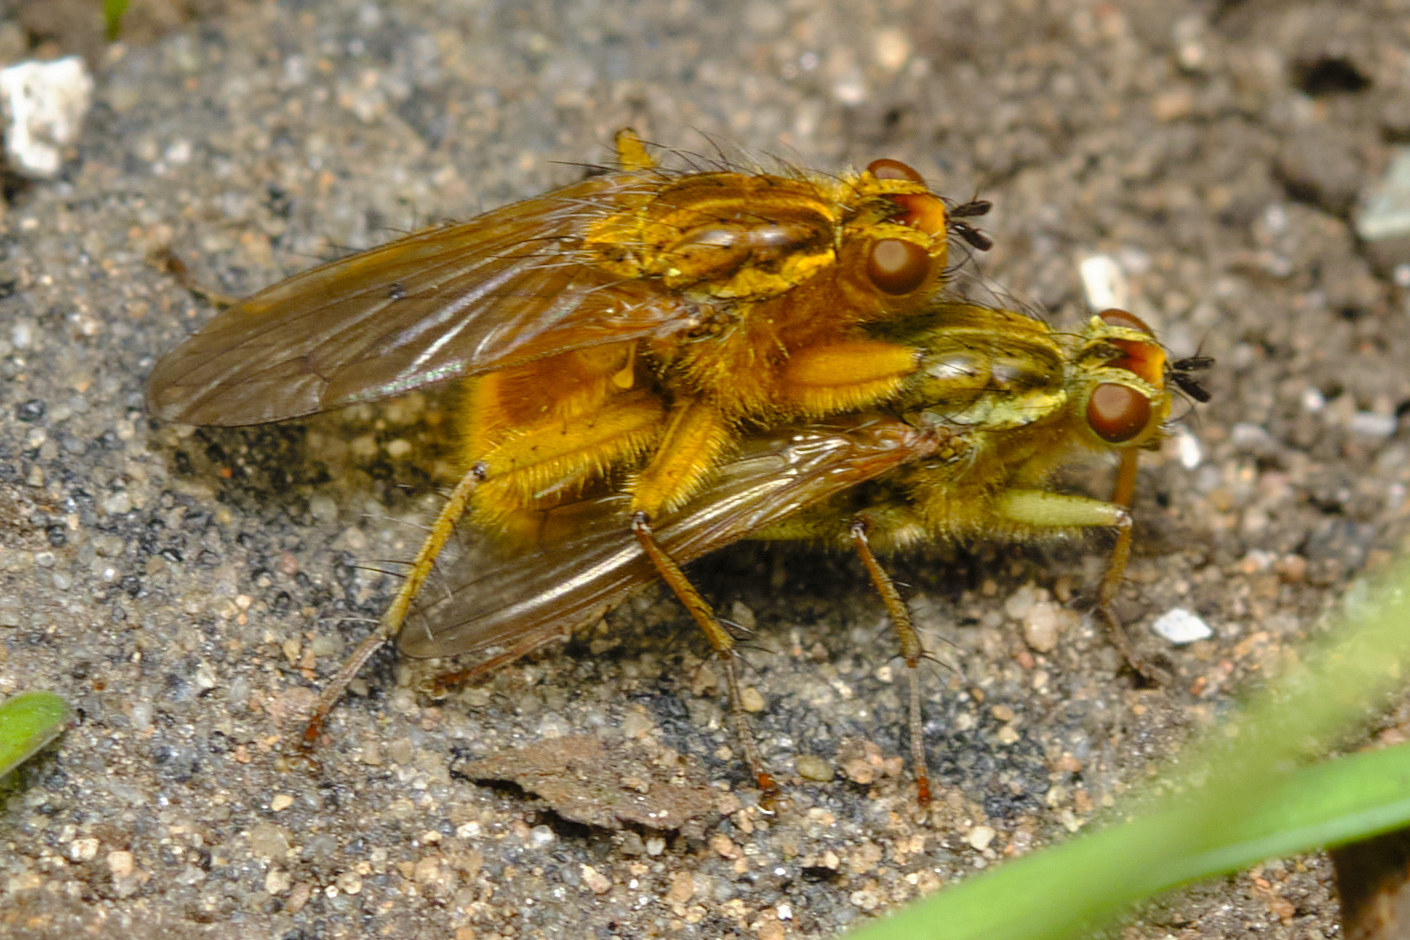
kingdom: Animalia
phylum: Arthropoda
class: Insecta
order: Diptera
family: Scathophagidae
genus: Scathophaga
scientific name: Scathophaga stercoraria
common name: Yellow dung fly
